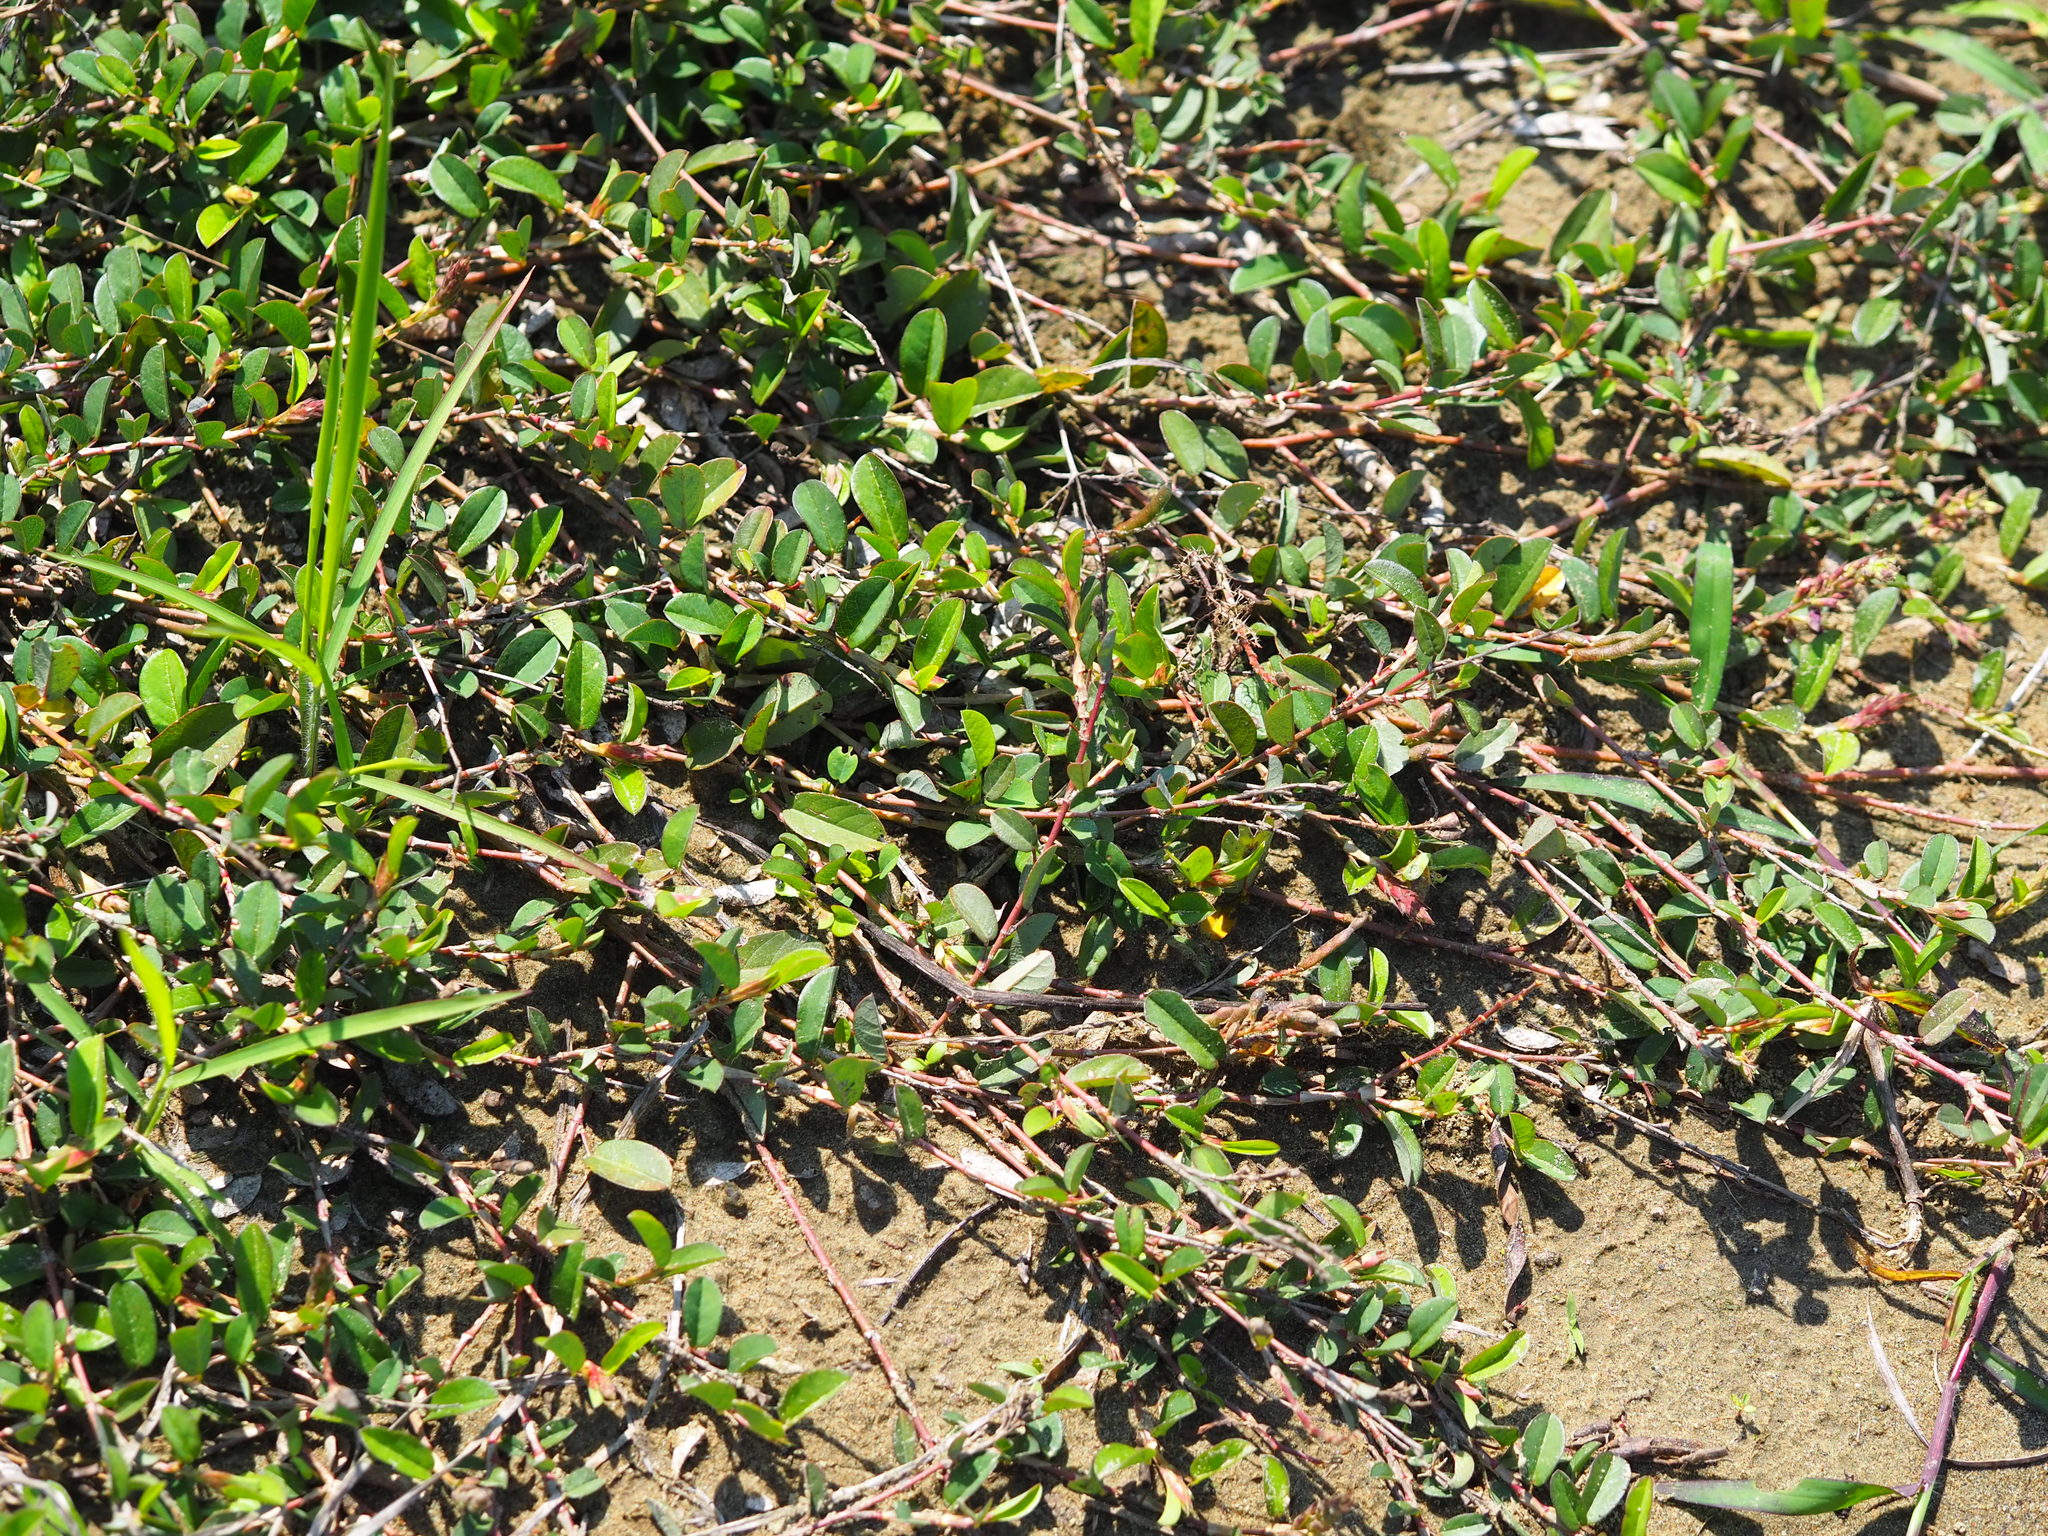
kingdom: Plantae
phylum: Tracheophyta
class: Magnoliopsida
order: Fabales
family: Fabaceae
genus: Alysicarpus
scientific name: Alysicarpus vaginalis
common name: White moneywort
